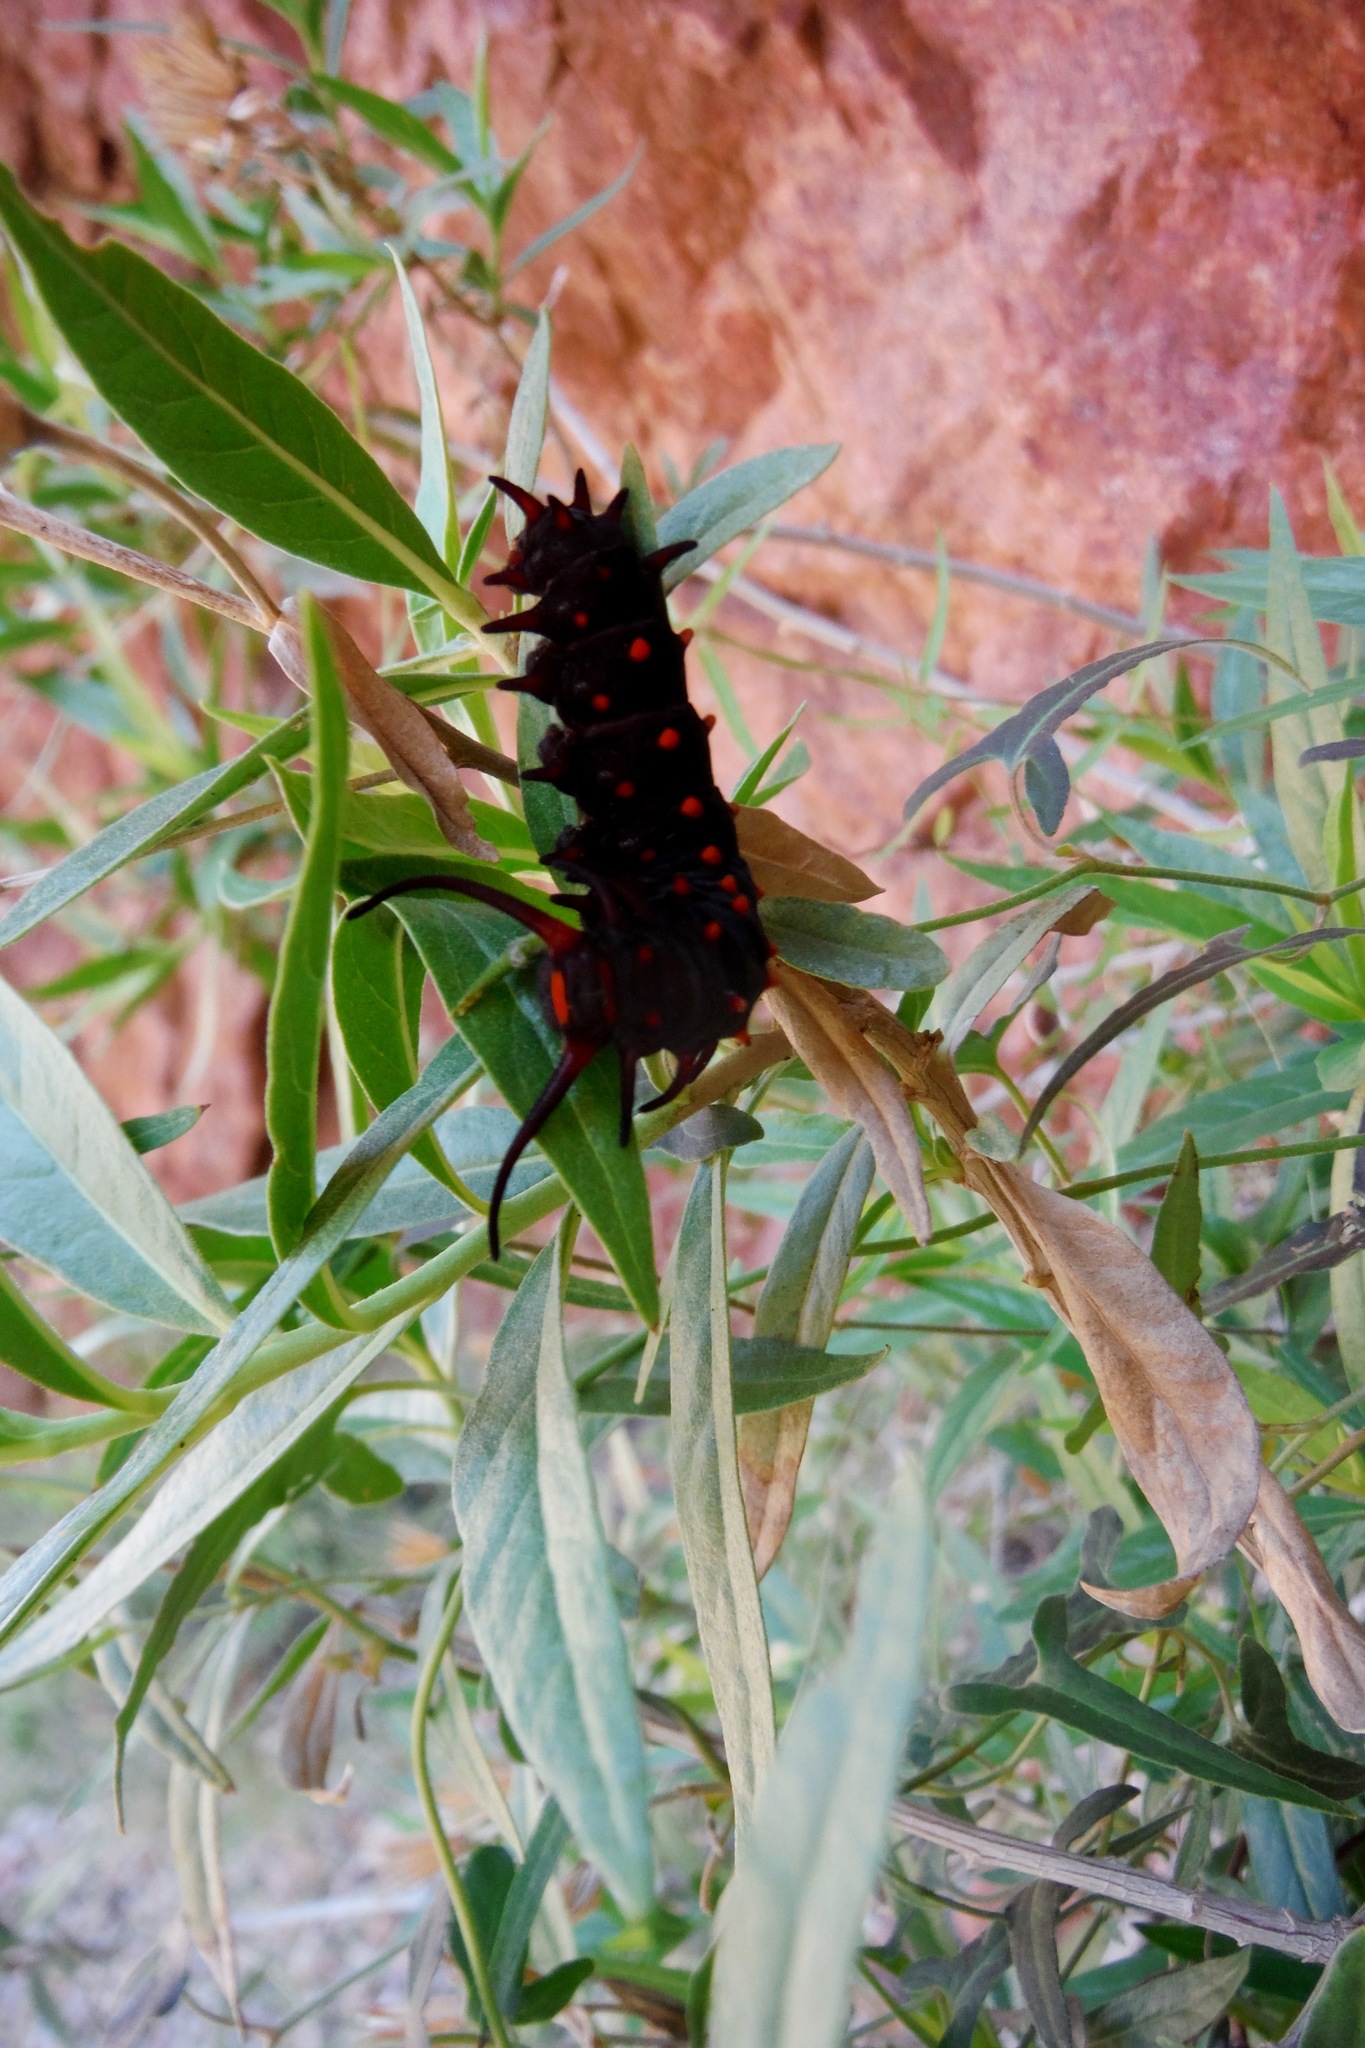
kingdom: Animalia
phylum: Arthropoda
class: Insecta
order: Lepidoptera
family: Papilionidae
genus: Battus
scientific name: Battus philenor
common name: Pipevine swallowtail
